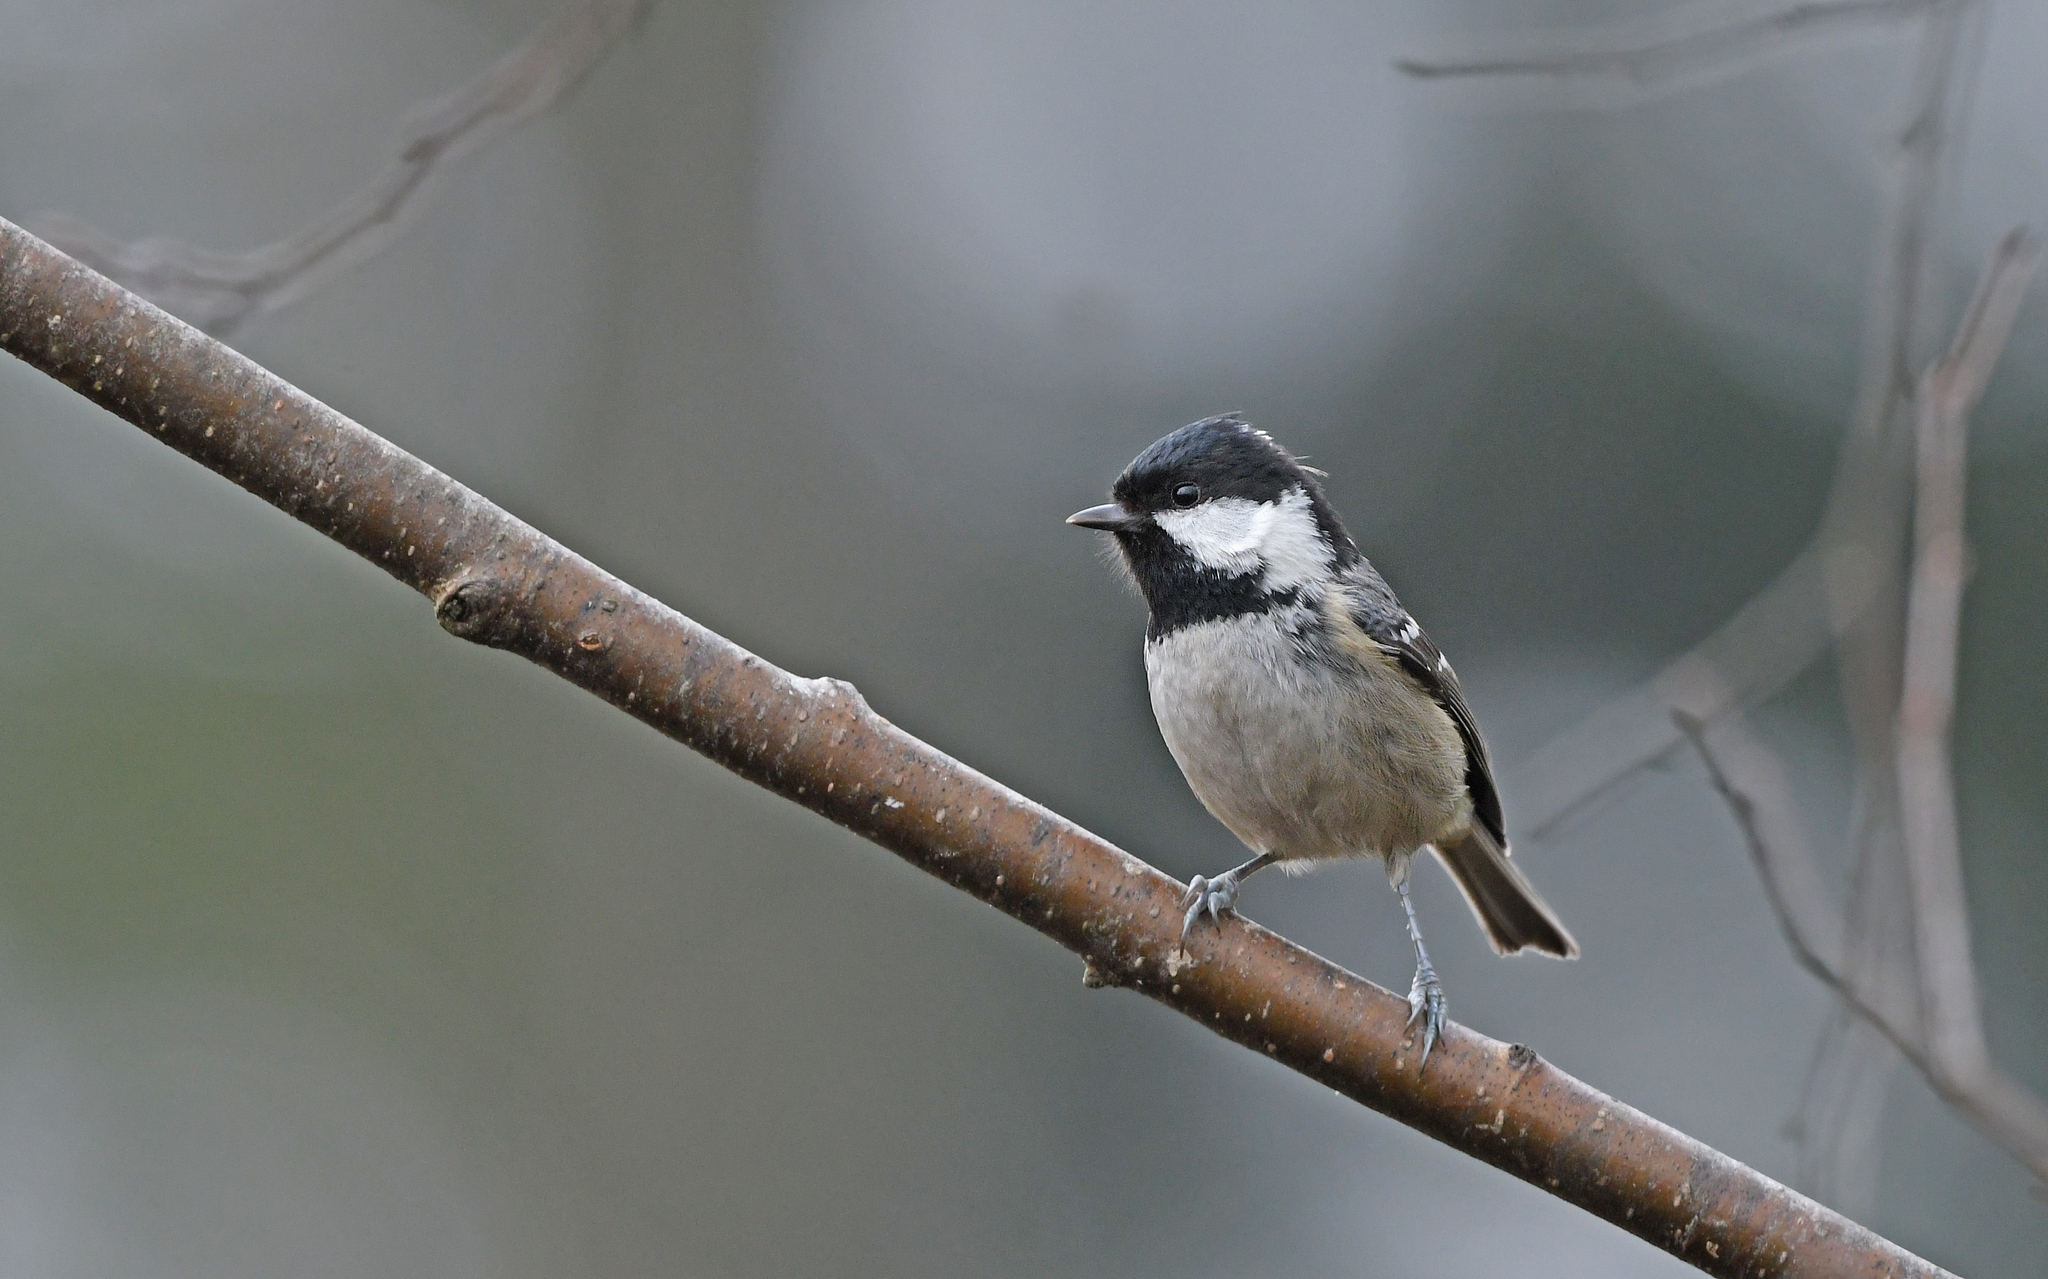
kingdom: Animalia
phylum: Chordata
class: Aves
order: Passeriformes
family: Paridae
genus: Periparus
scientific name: Periparus ater
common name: Coal tit
